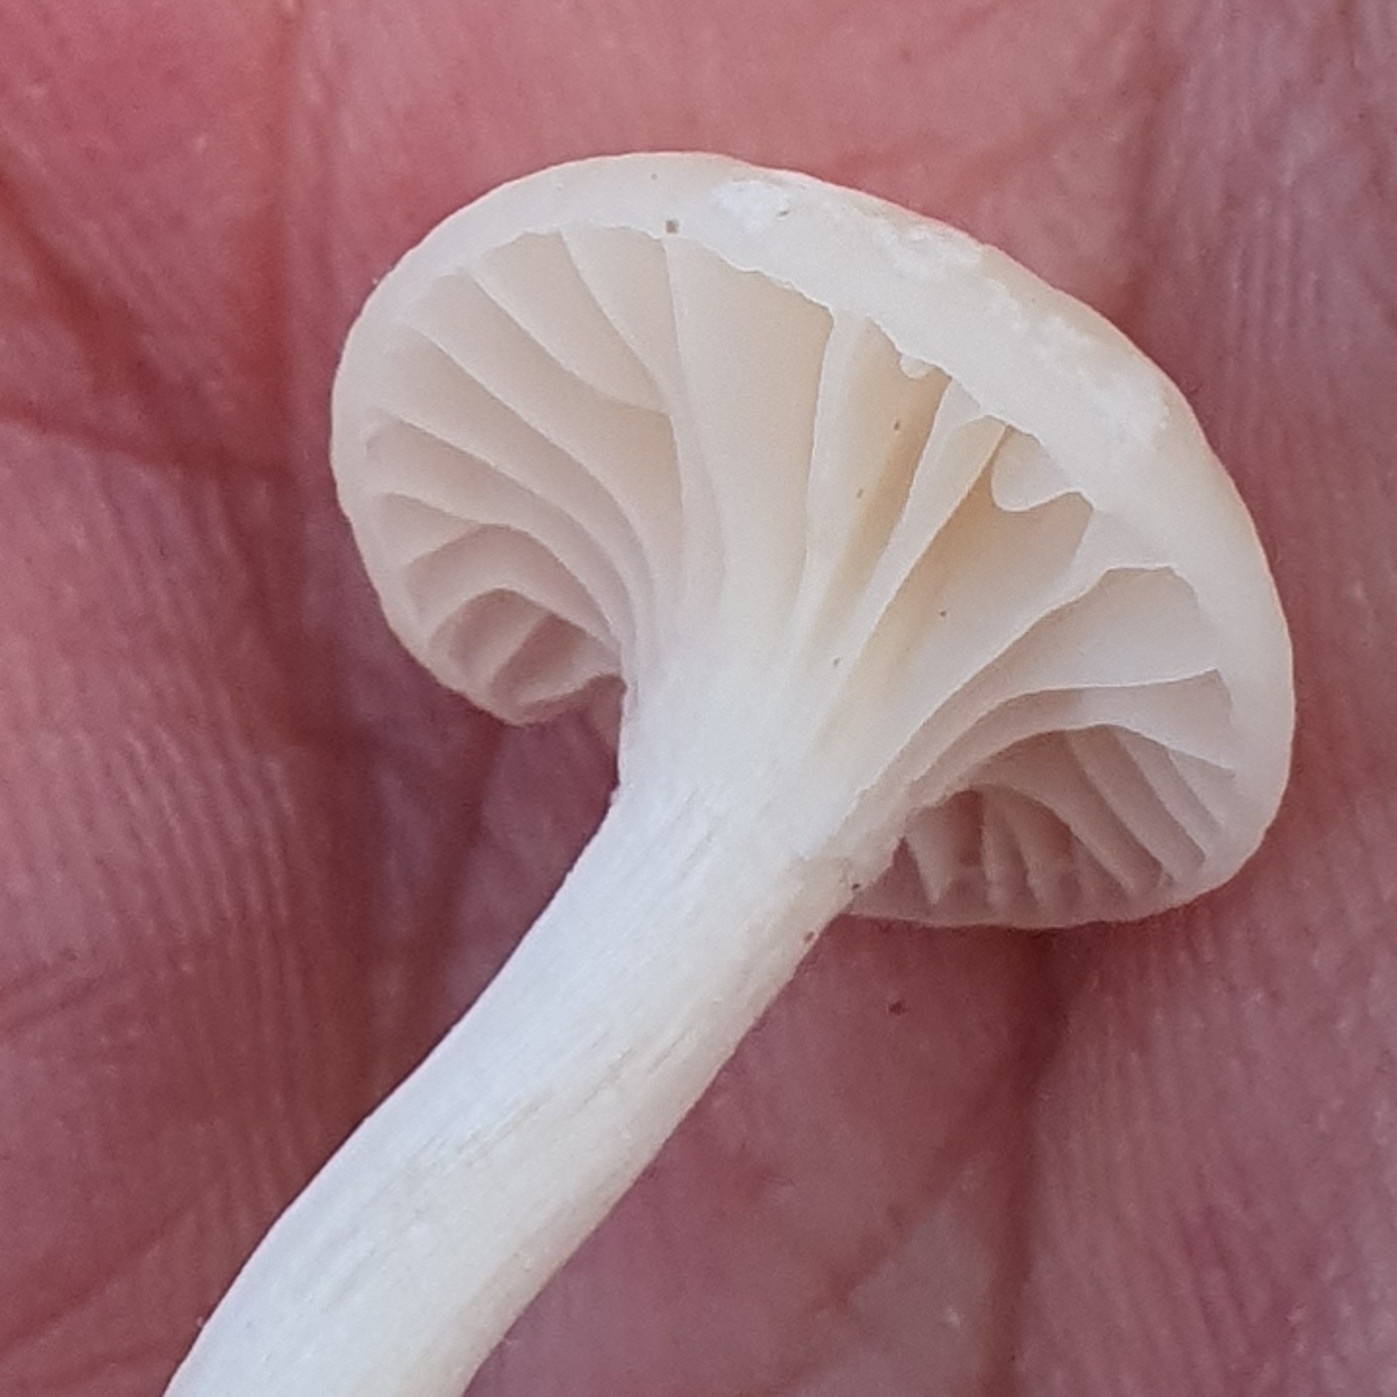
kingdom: Fungi
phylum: Basidiomycota
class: Agaricomycetes
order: Agaricales
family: Hygrophoraceae
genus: Cuphophyllus
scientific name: Cuphophyllus virgineus
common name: Snowy waxcap
